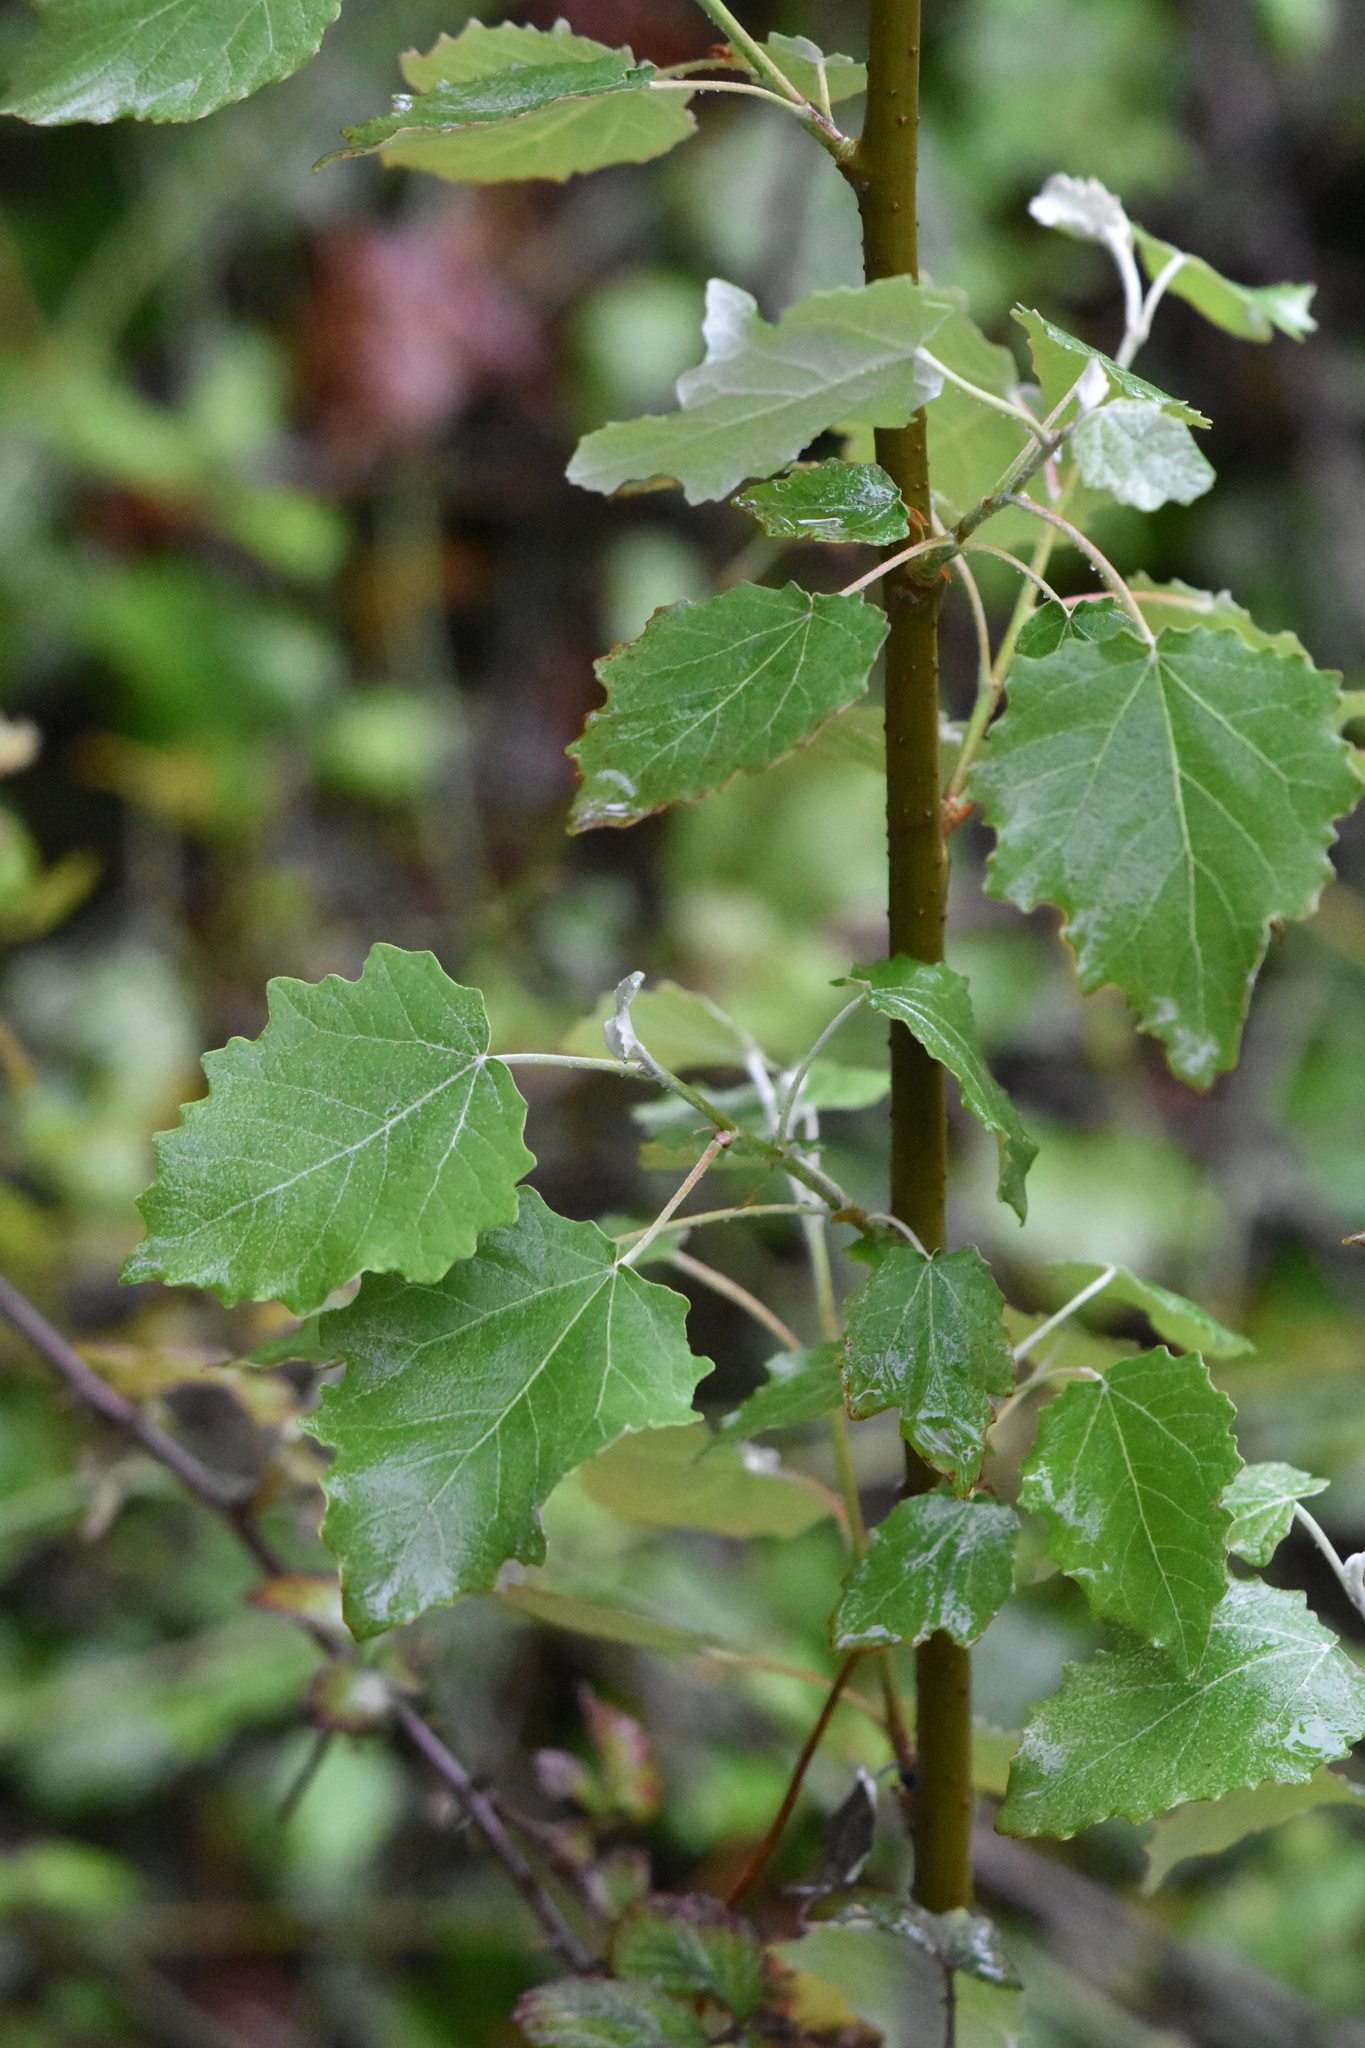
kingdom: Plantae
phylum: Tracheophyta
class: Magnoliopsida
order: Malpighiales
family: Salicaceae
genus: Populus
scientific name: Populus alba
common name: White poplar
